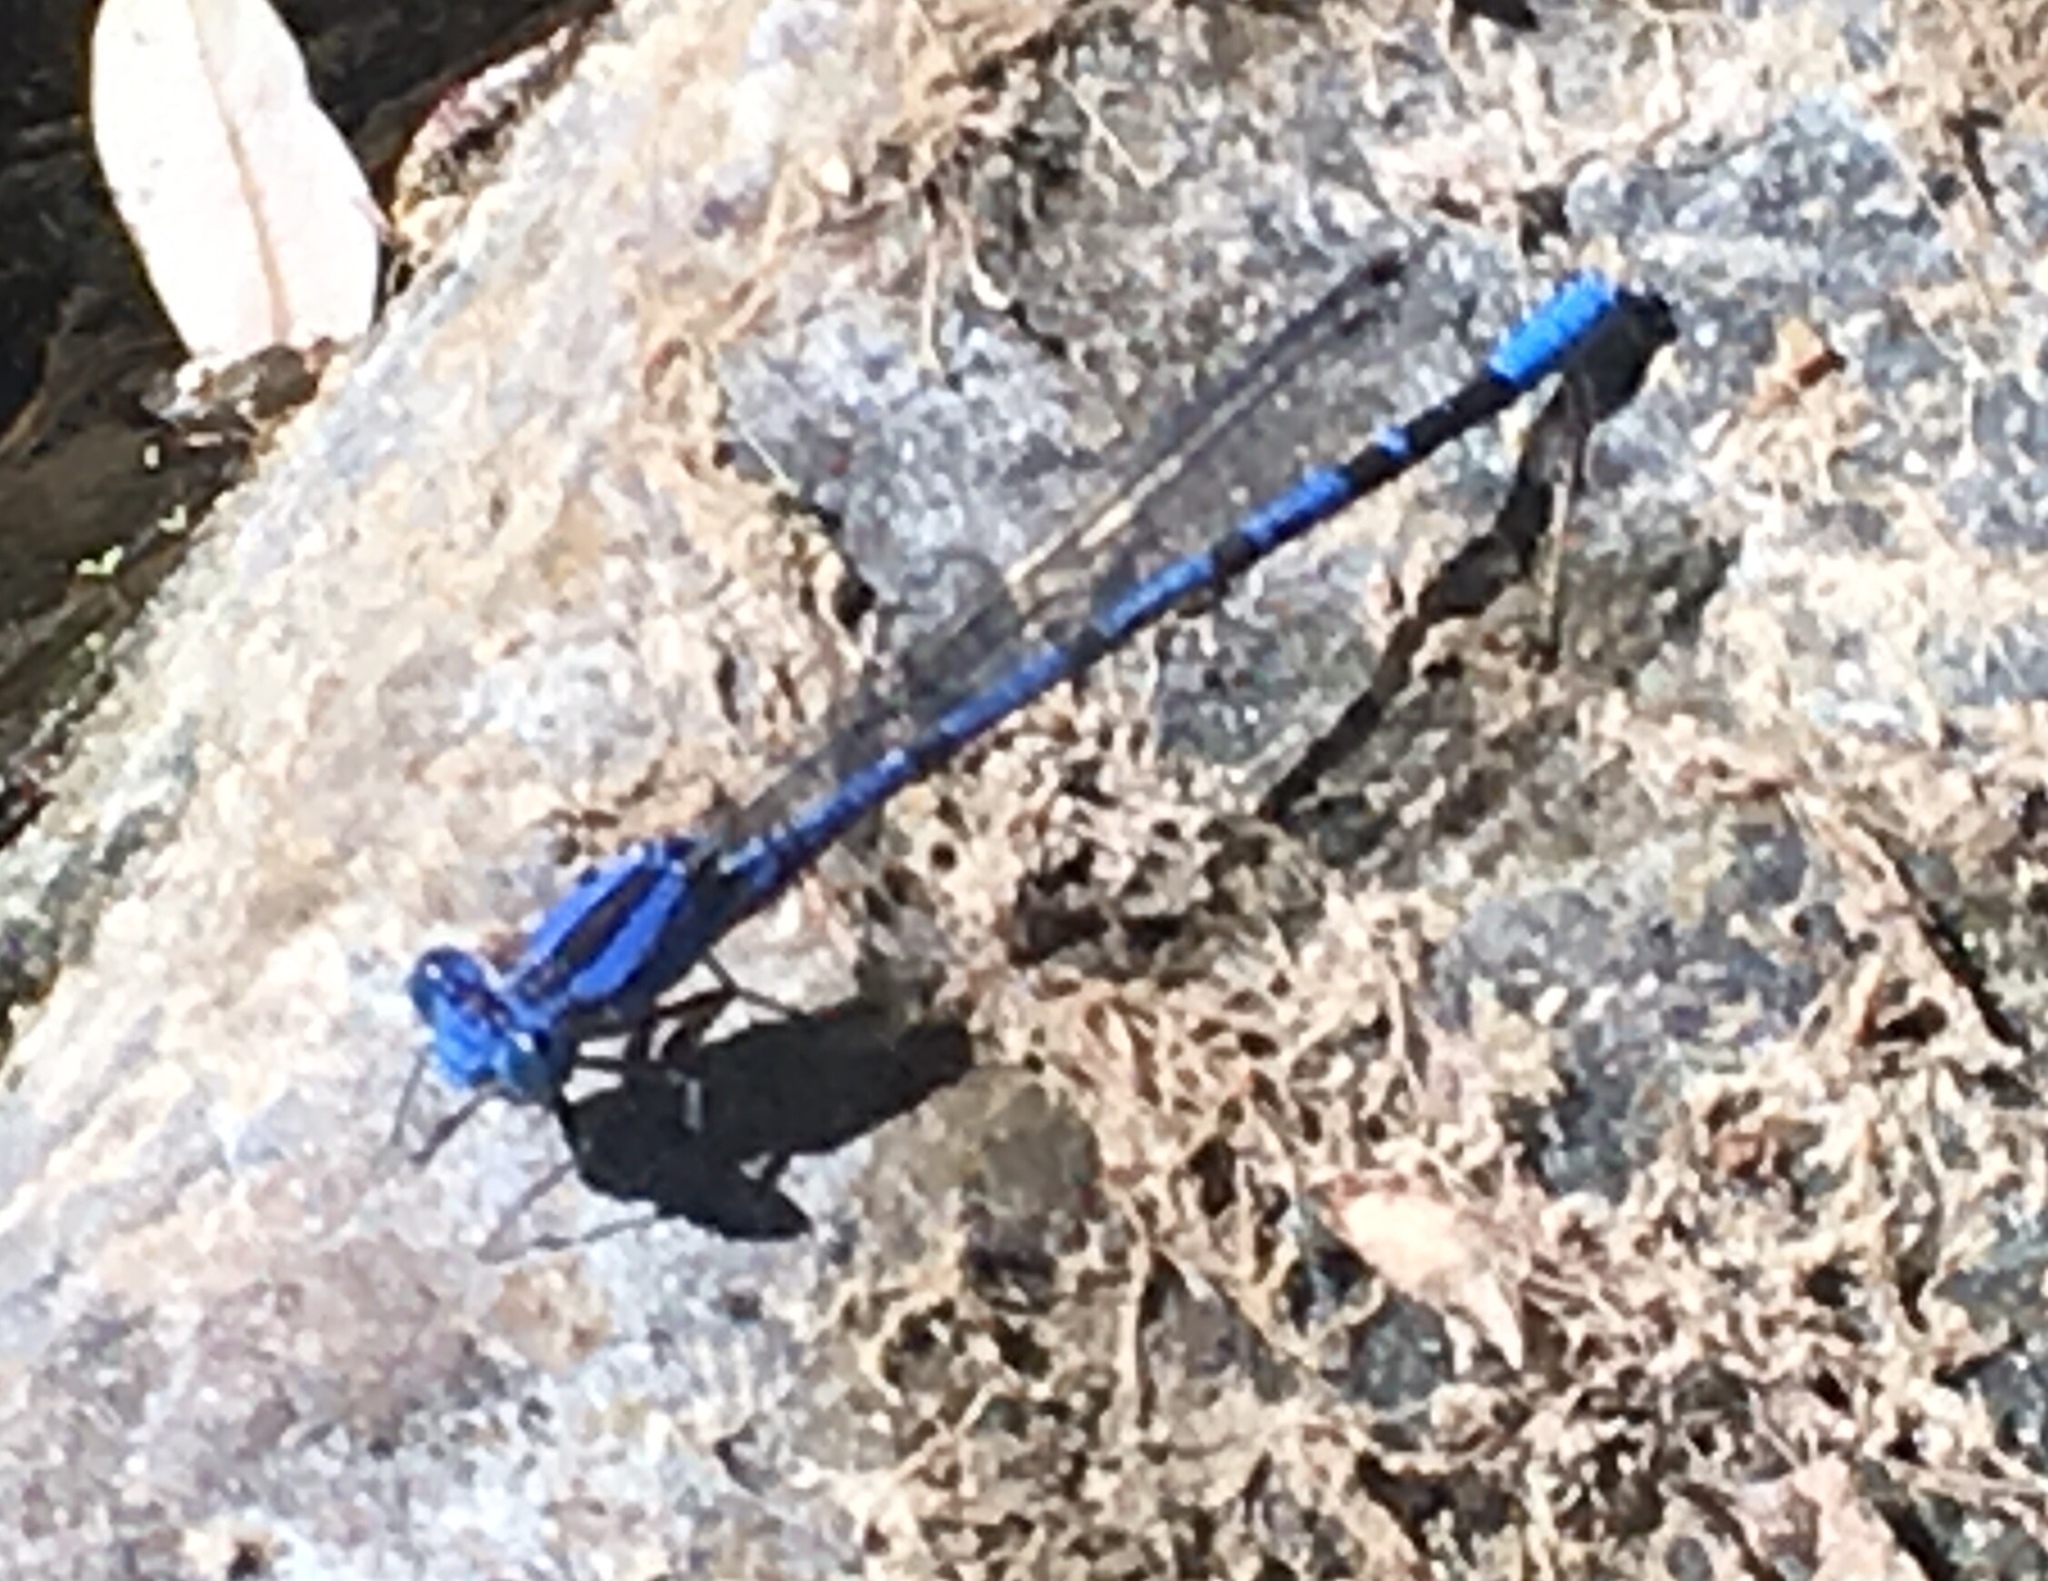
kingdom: Animalia
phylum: Arthropoda
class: Insecta
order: Odonata
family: Coenagrionidae
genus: Argia
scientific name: Argia vivida
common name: Vivid dancer
